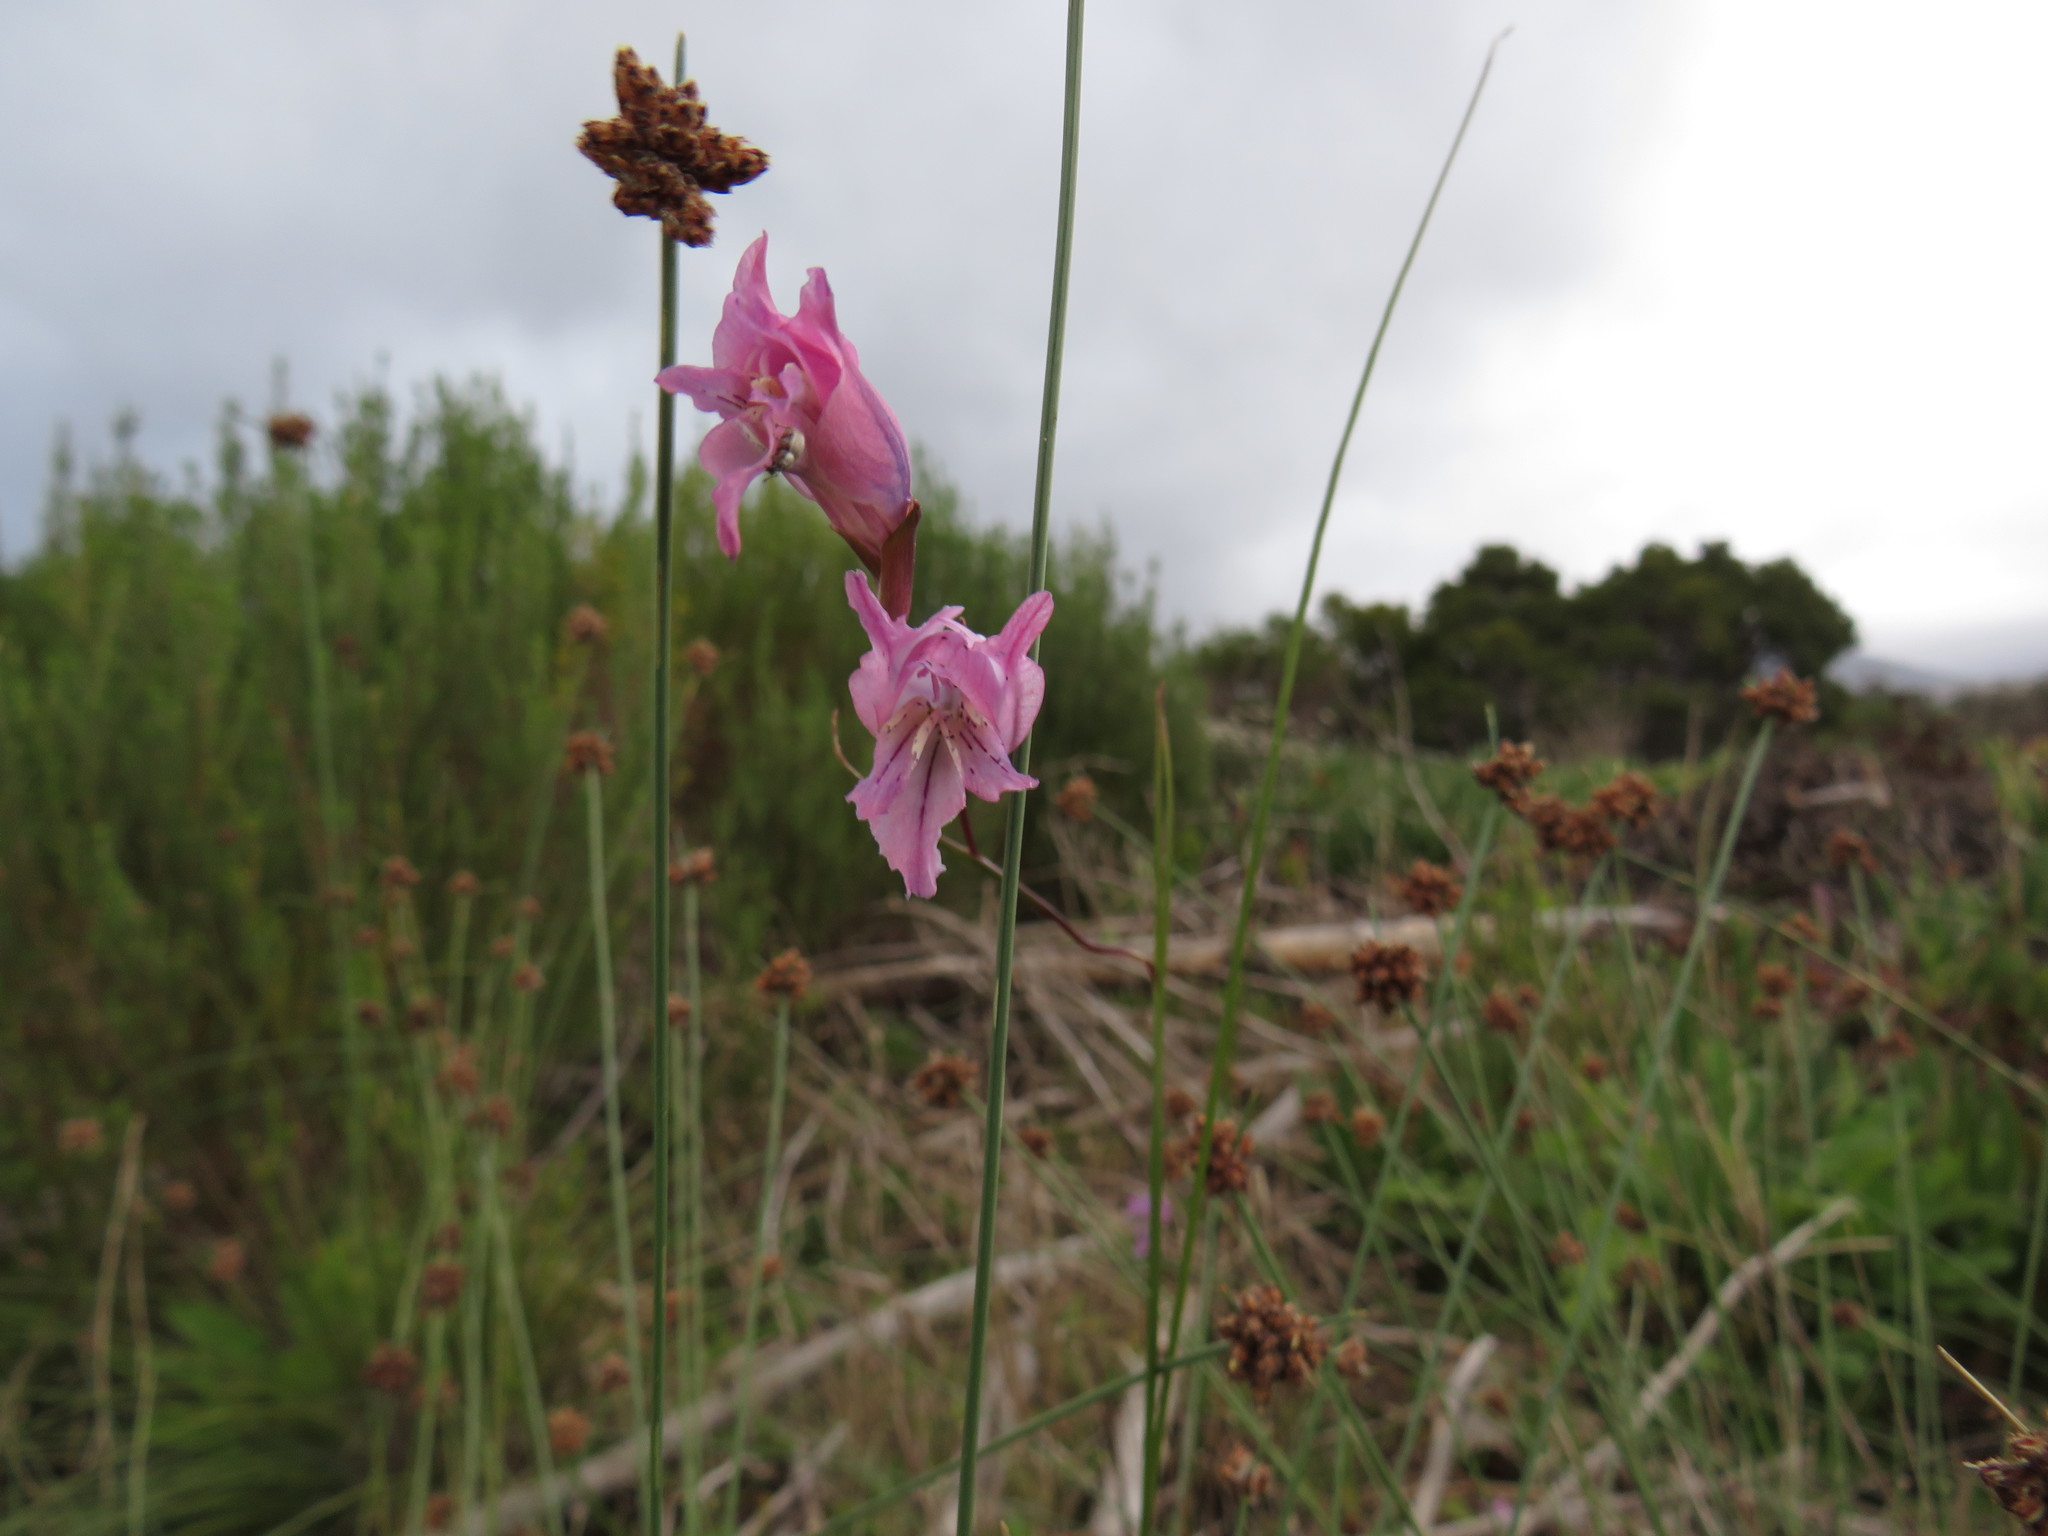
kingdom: Plantae
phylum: Tracheophyta
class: Liliopsida
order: Asparagales
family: Iridaceae
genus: Gladiolus
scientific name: Gladiolus gracilis
